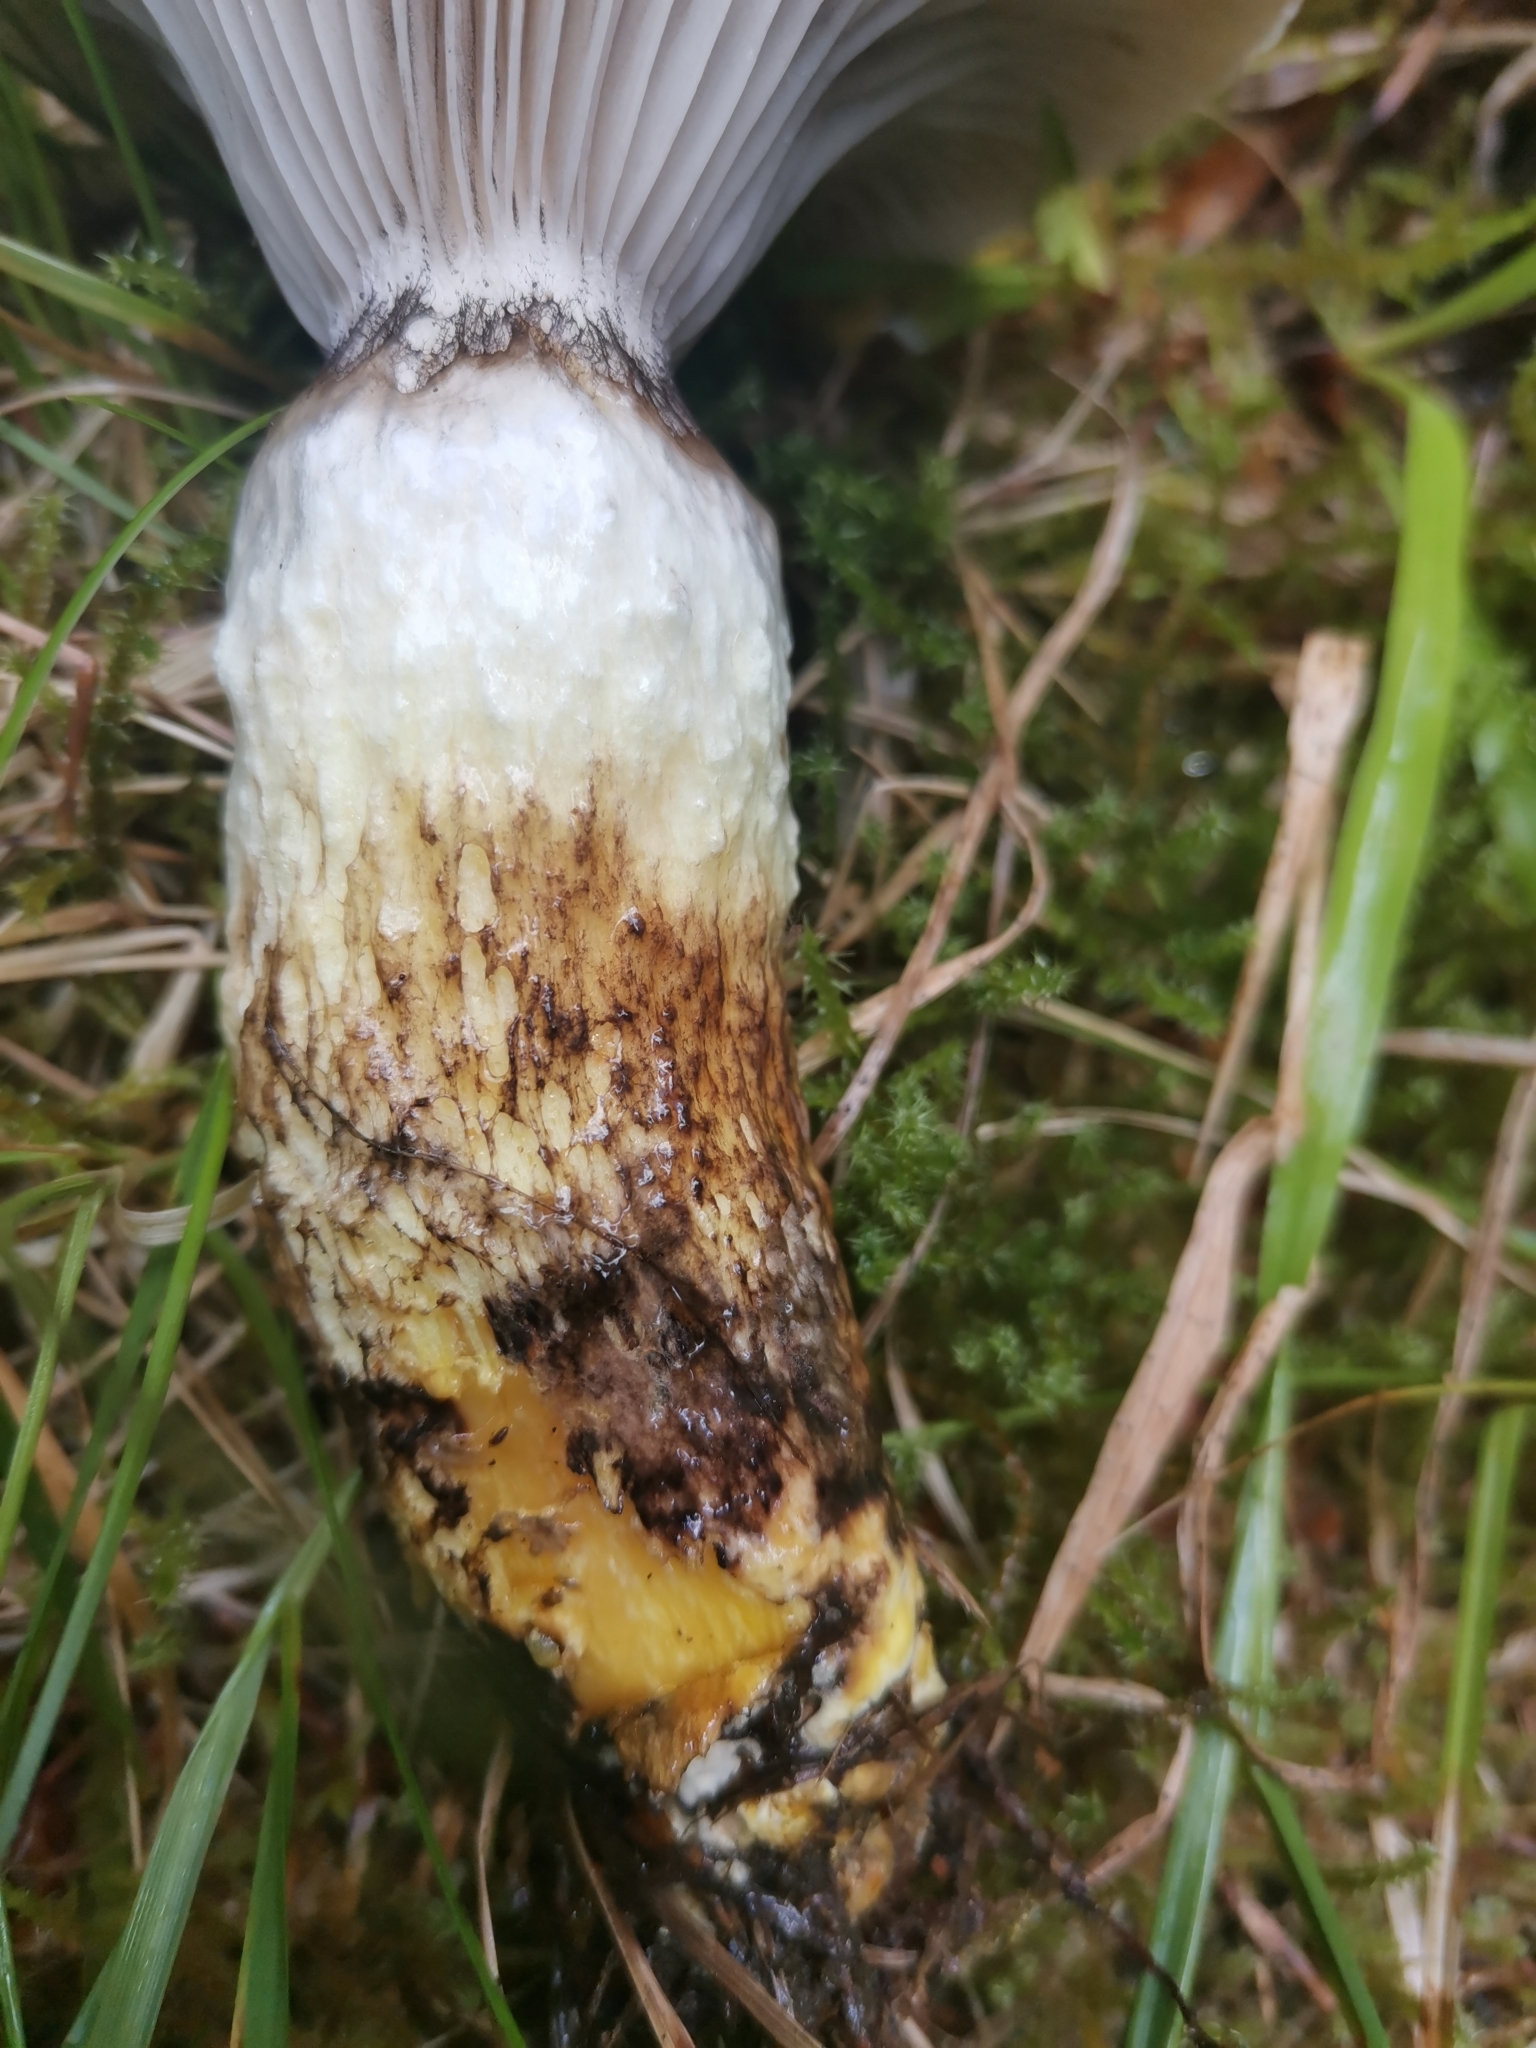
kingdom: Fungi
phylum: Basidiomycota
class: Agaricomycetes
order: Boletales
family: Gomphidiaceae
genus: Gomphidius
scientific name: Gomphidius glutinosus
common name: Slimy spike
